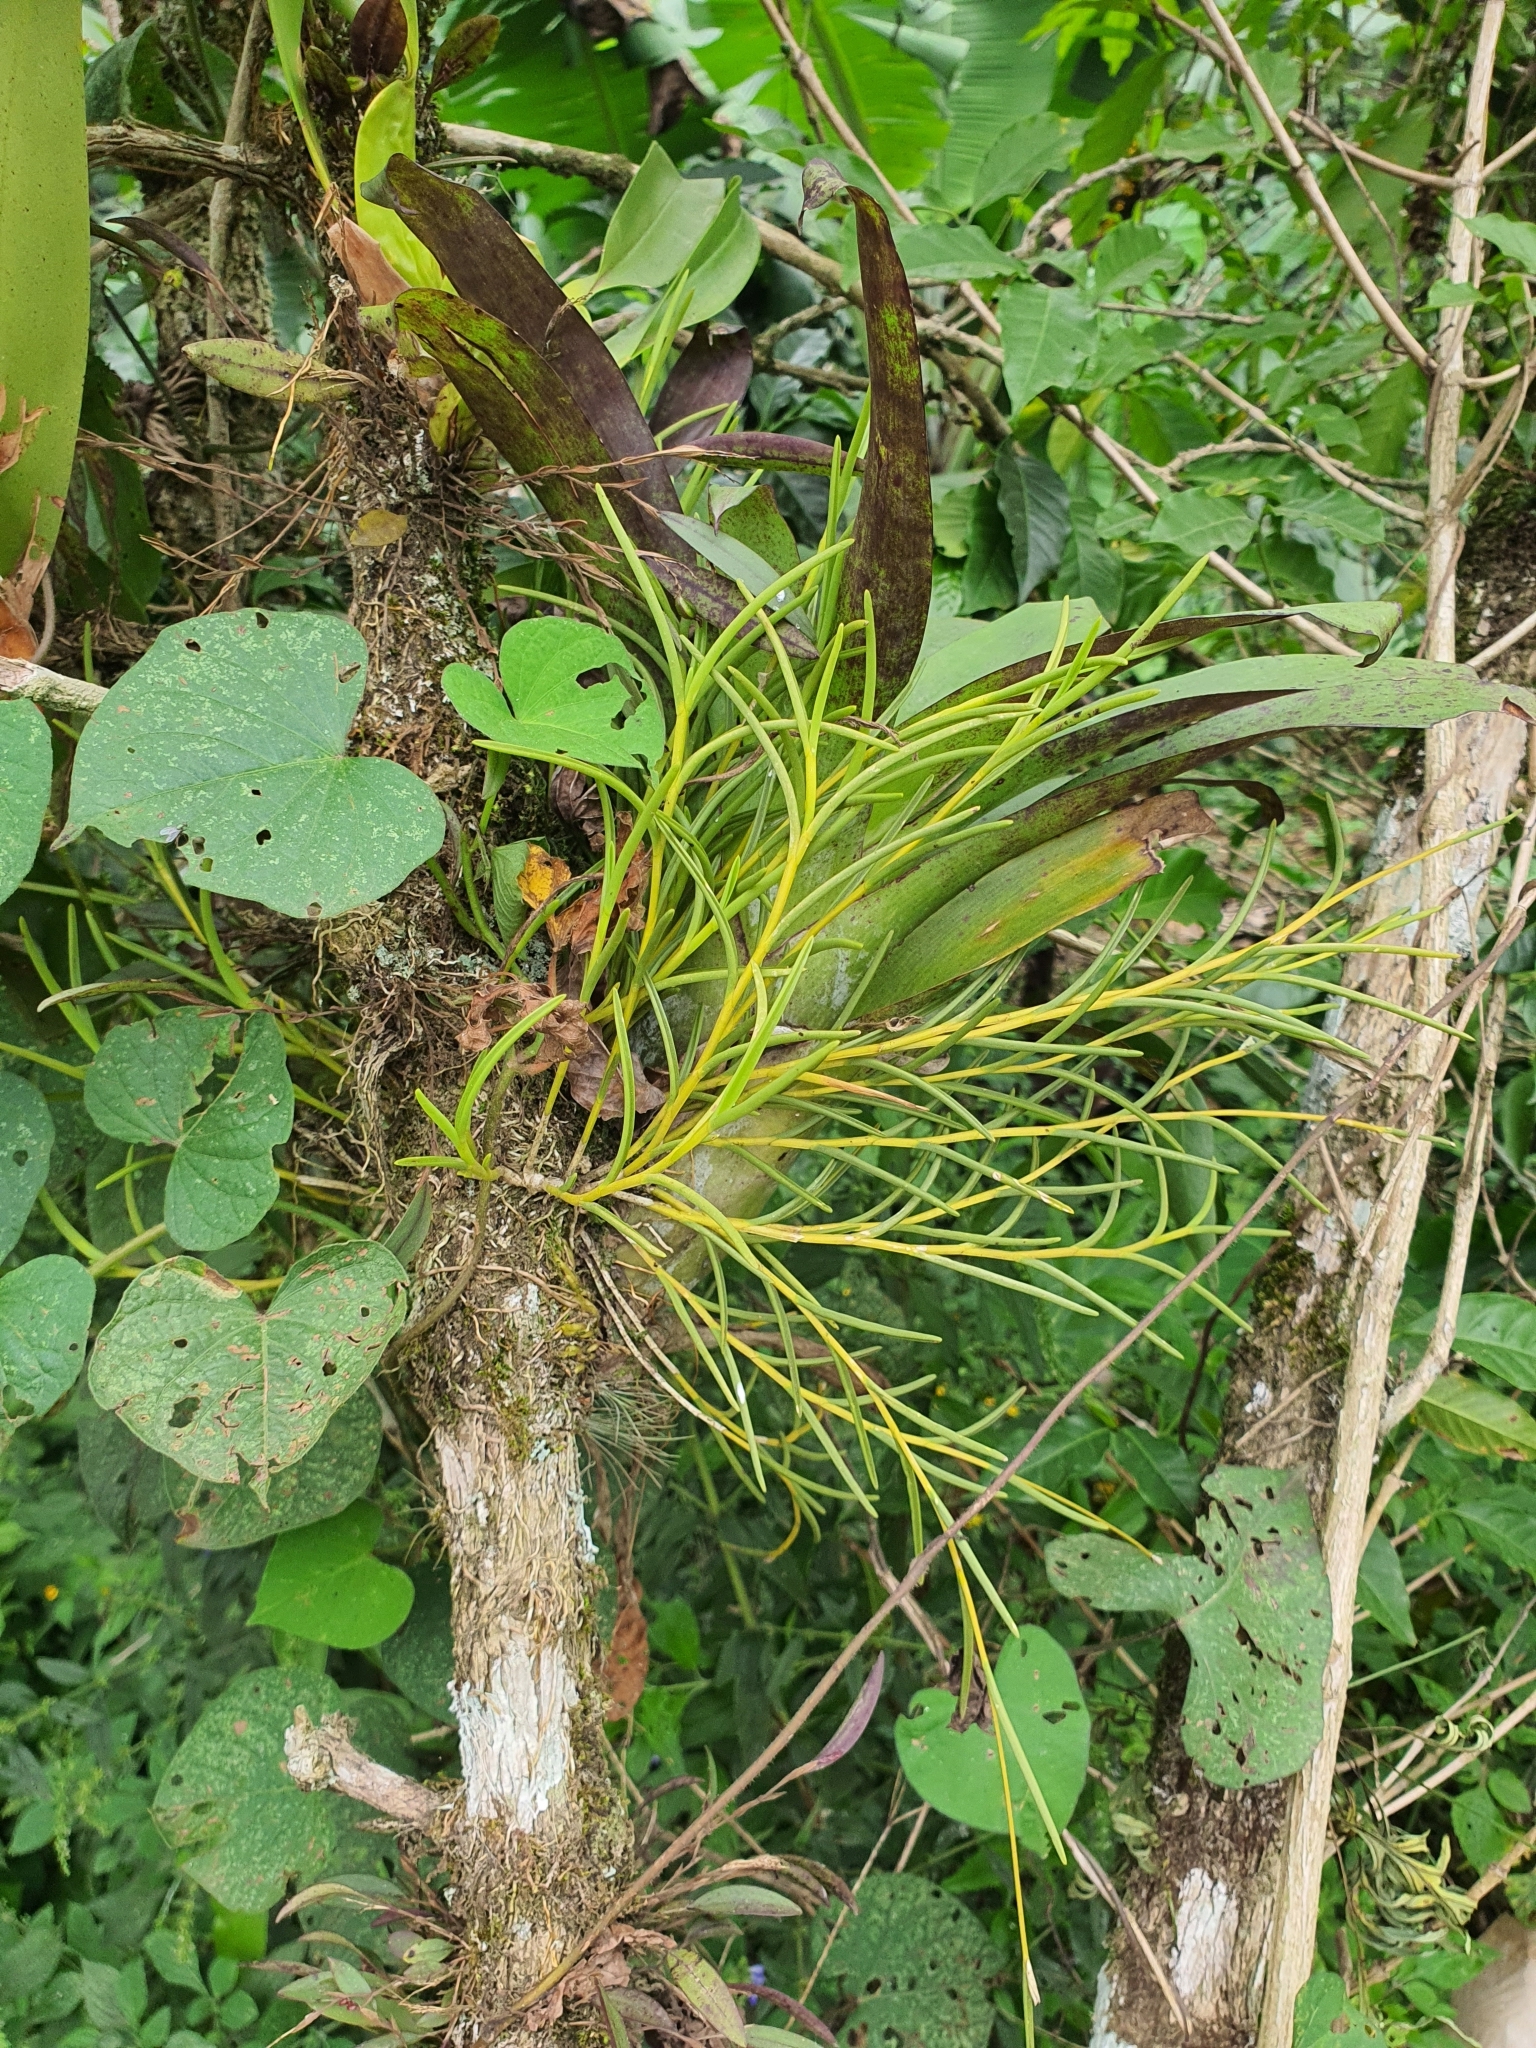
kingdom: Plantae
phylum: Tracheophyta
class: Liliopsida
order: Asparagales
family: Orchidaceae
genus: Jacquiniella
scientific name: Jacquiniella teretifolia
